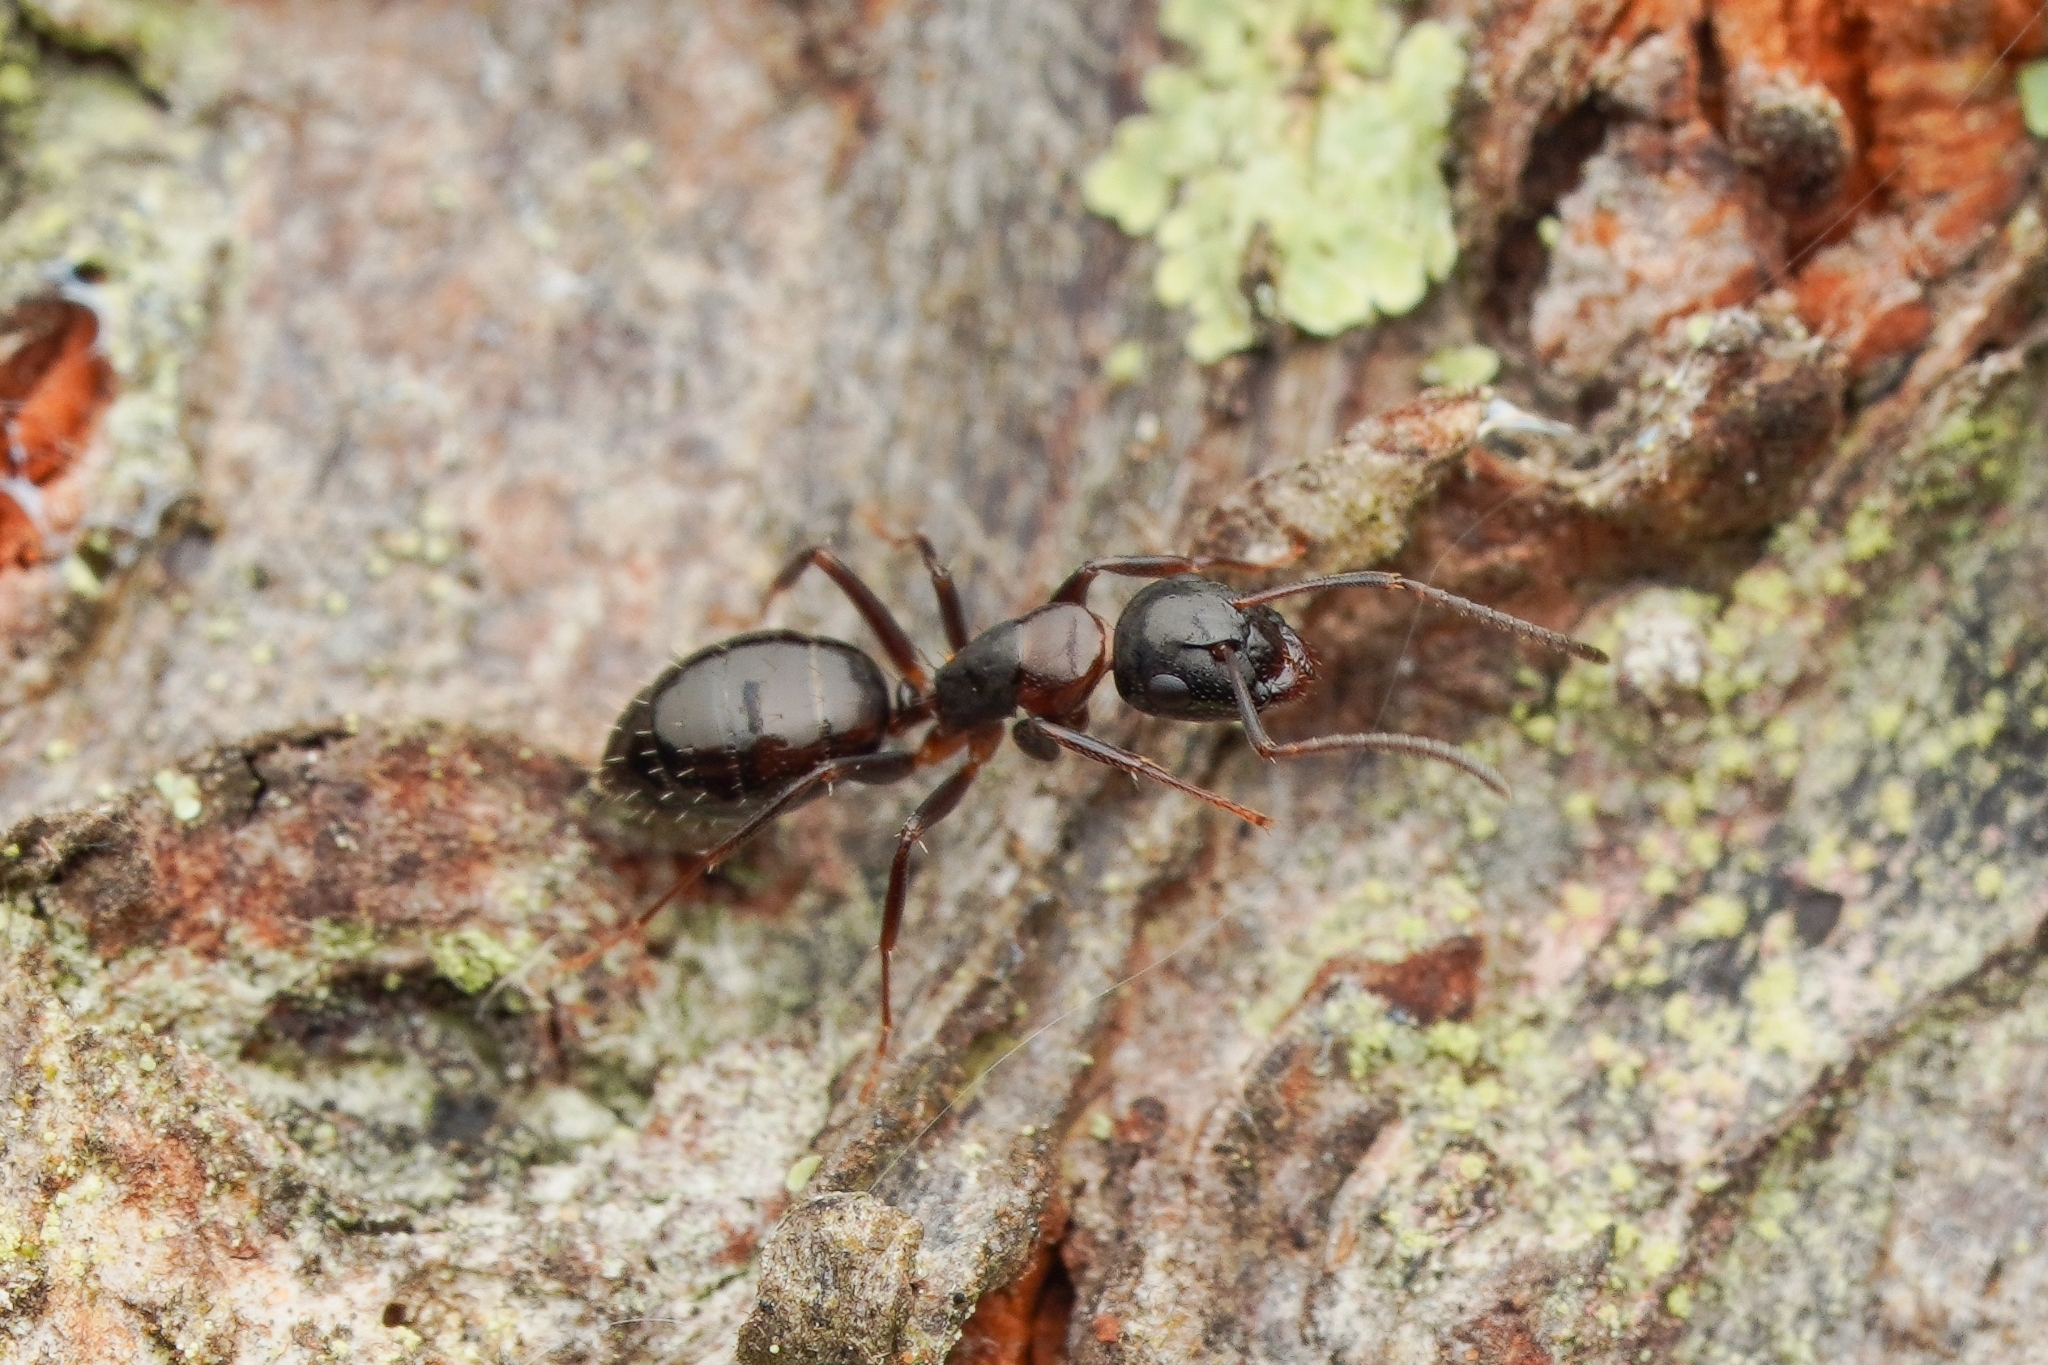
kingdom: Animalia
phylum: Arthropoda
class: Insecta
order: Hymenoptera
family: Formicidae
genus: Camponotus
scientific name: Camponotus nawai
